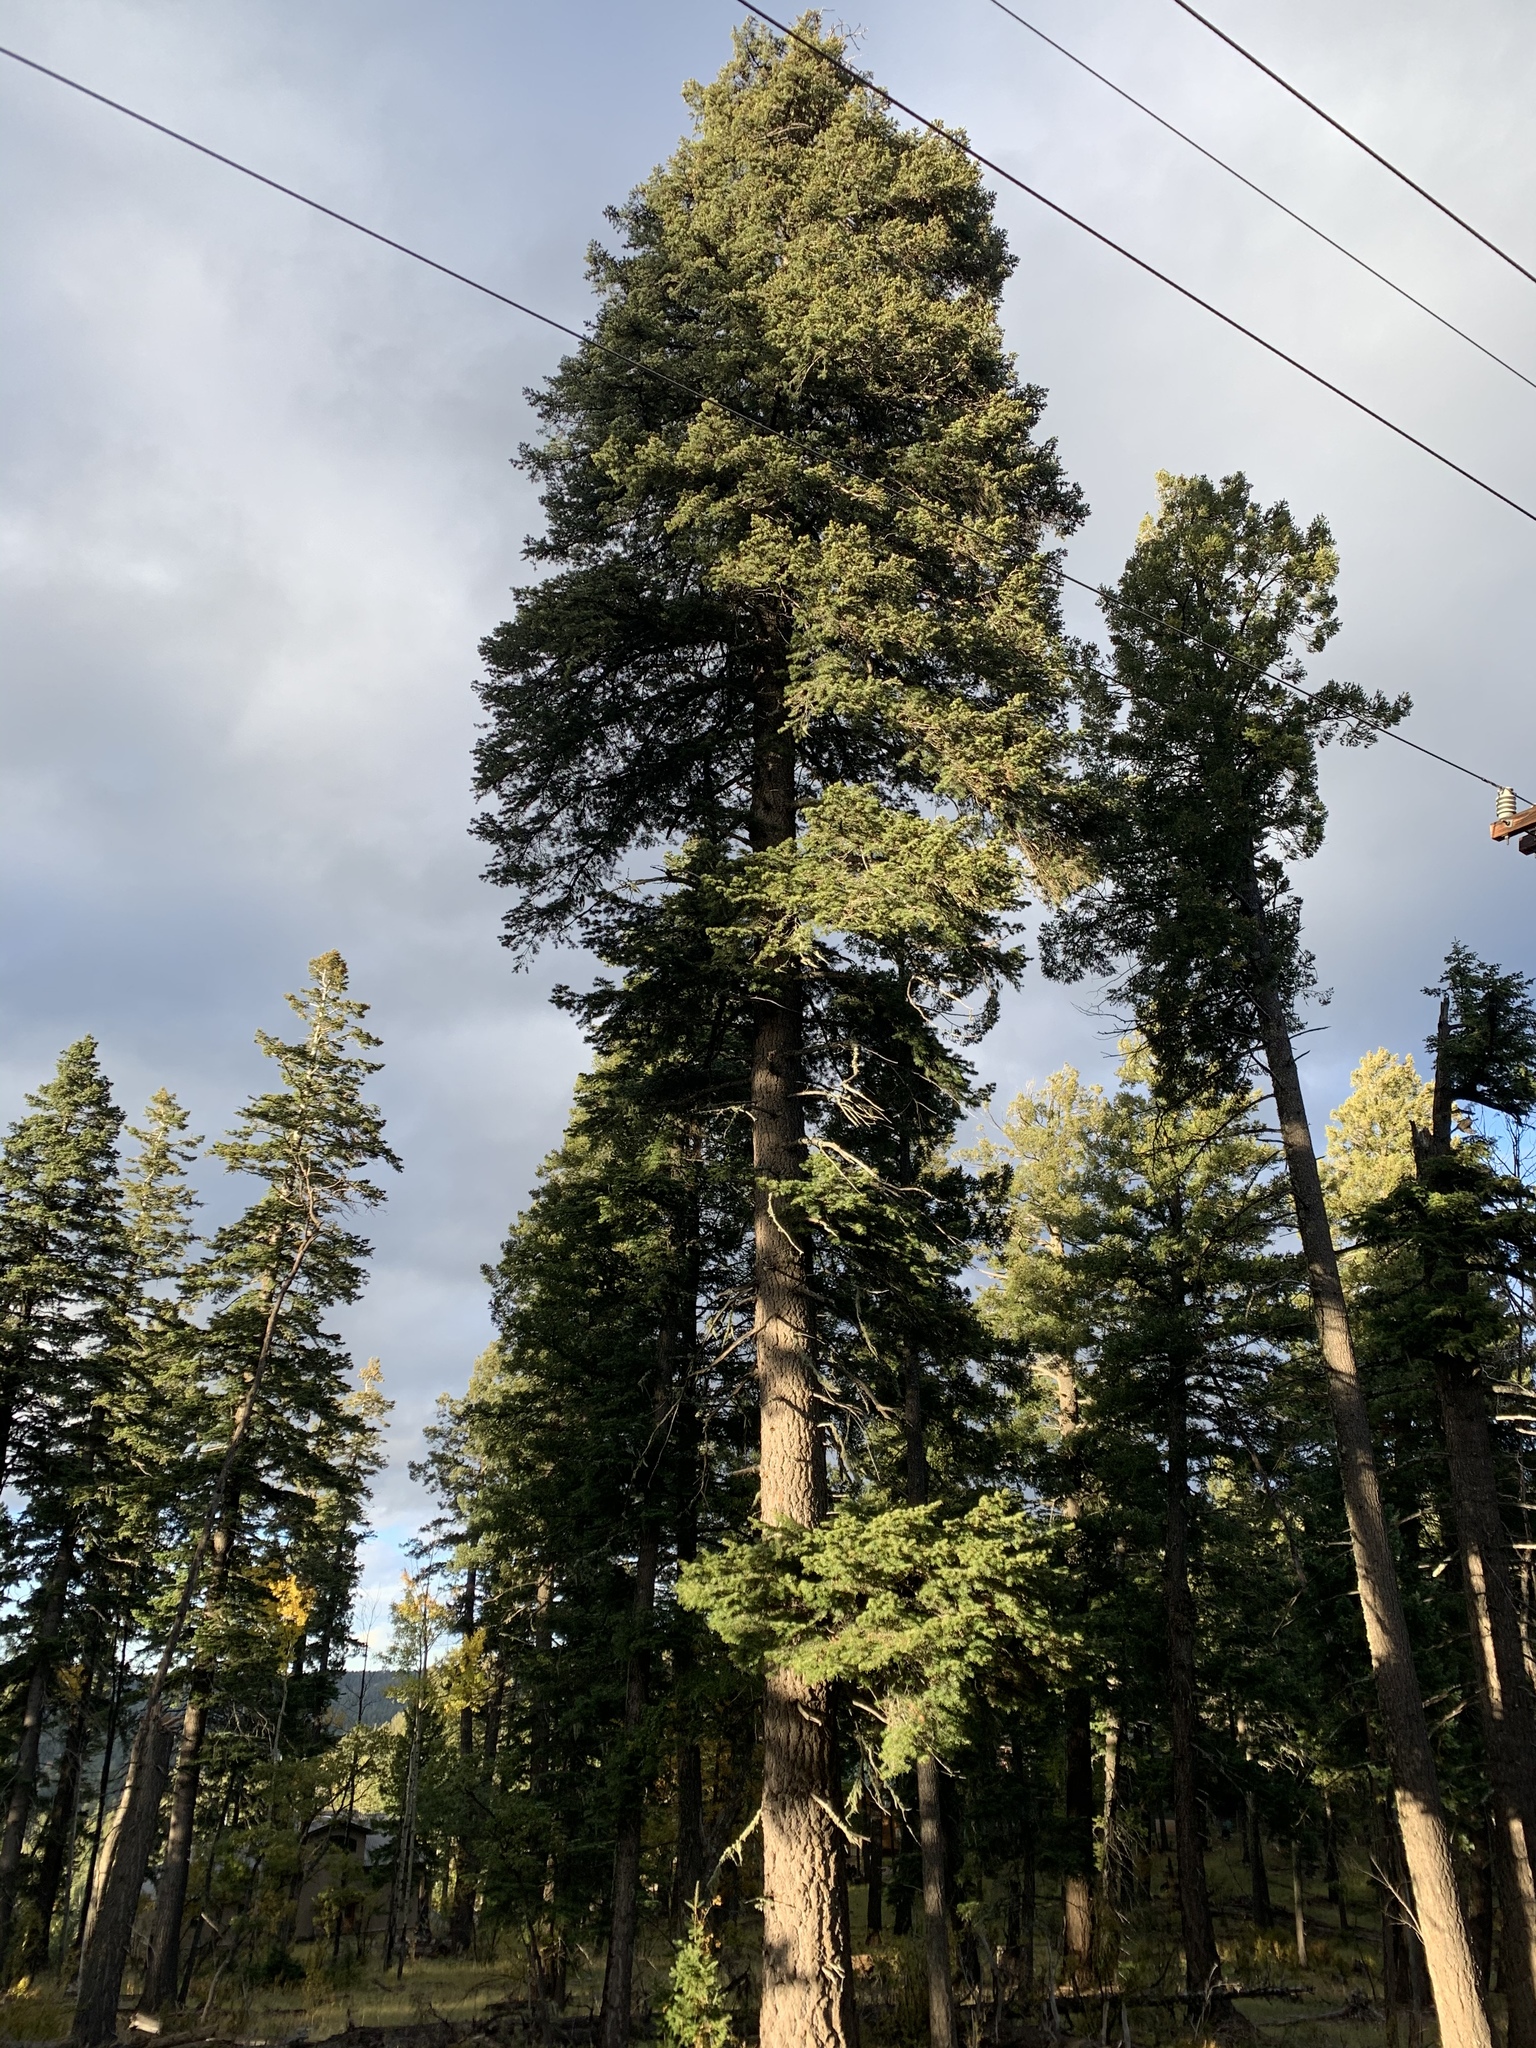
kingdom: Plantae
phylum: Tracheophyta
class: Pinopsida
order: Pinales
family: Pinaceae
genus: Abies
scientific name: Abies concolor
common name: Colorado fir
